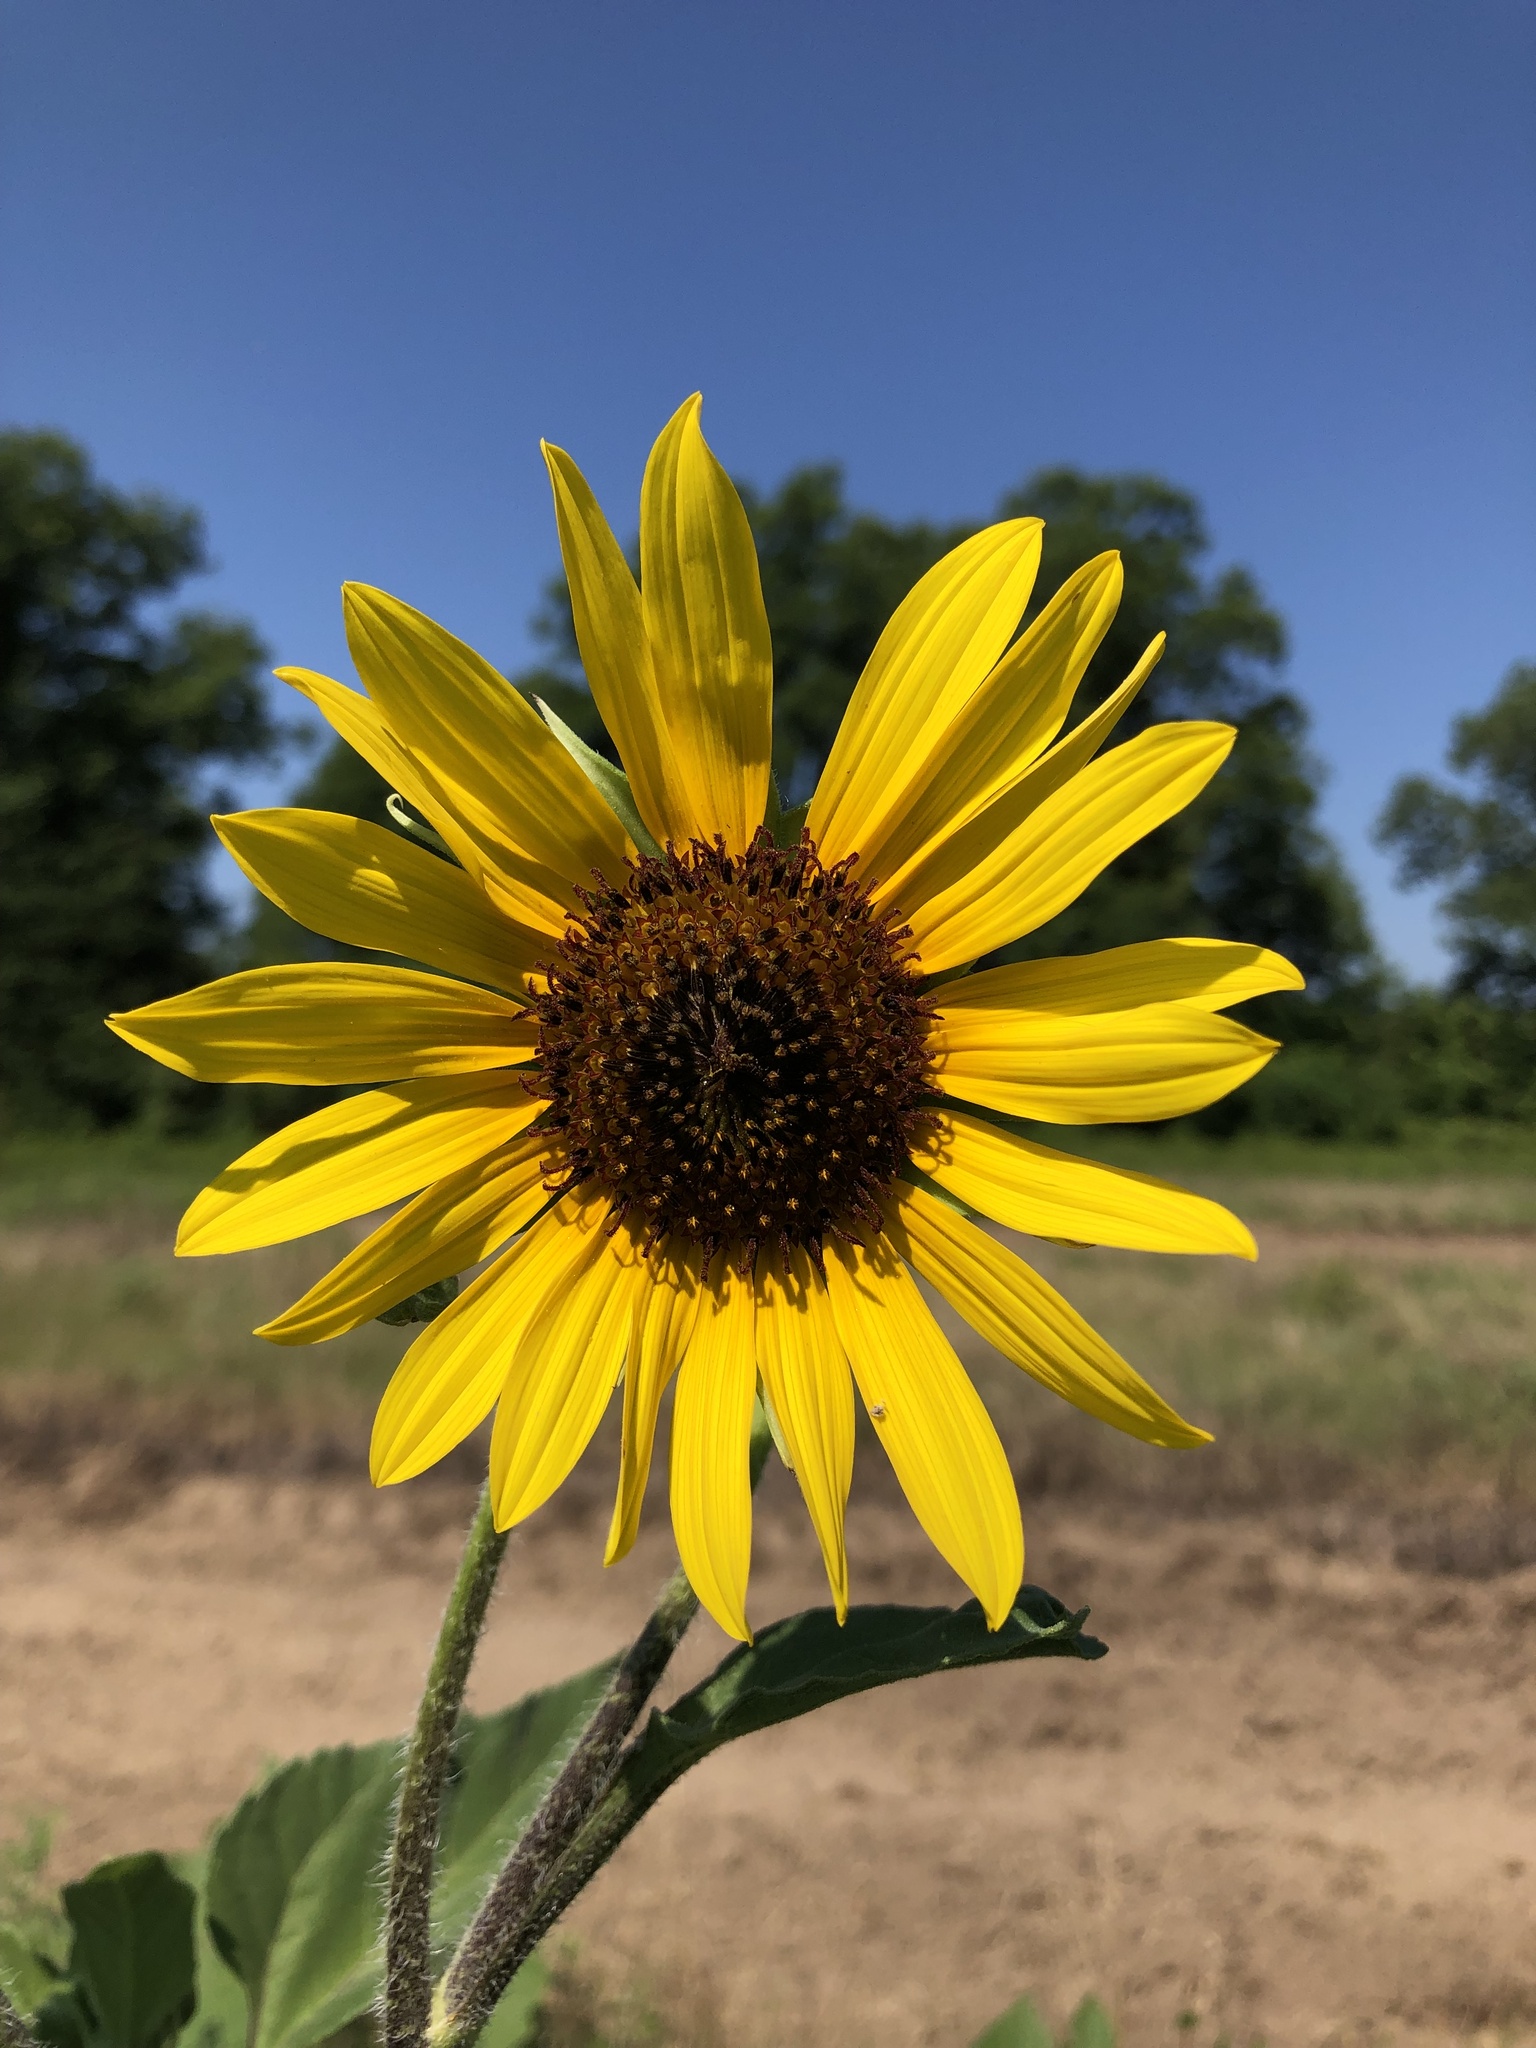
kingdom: Plantae
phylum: Tracheophyta
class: Magnoliopsida
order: Asterales
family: Asteraceae
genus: Helianthus
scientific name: Helianthus annuus
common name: Sunflower
